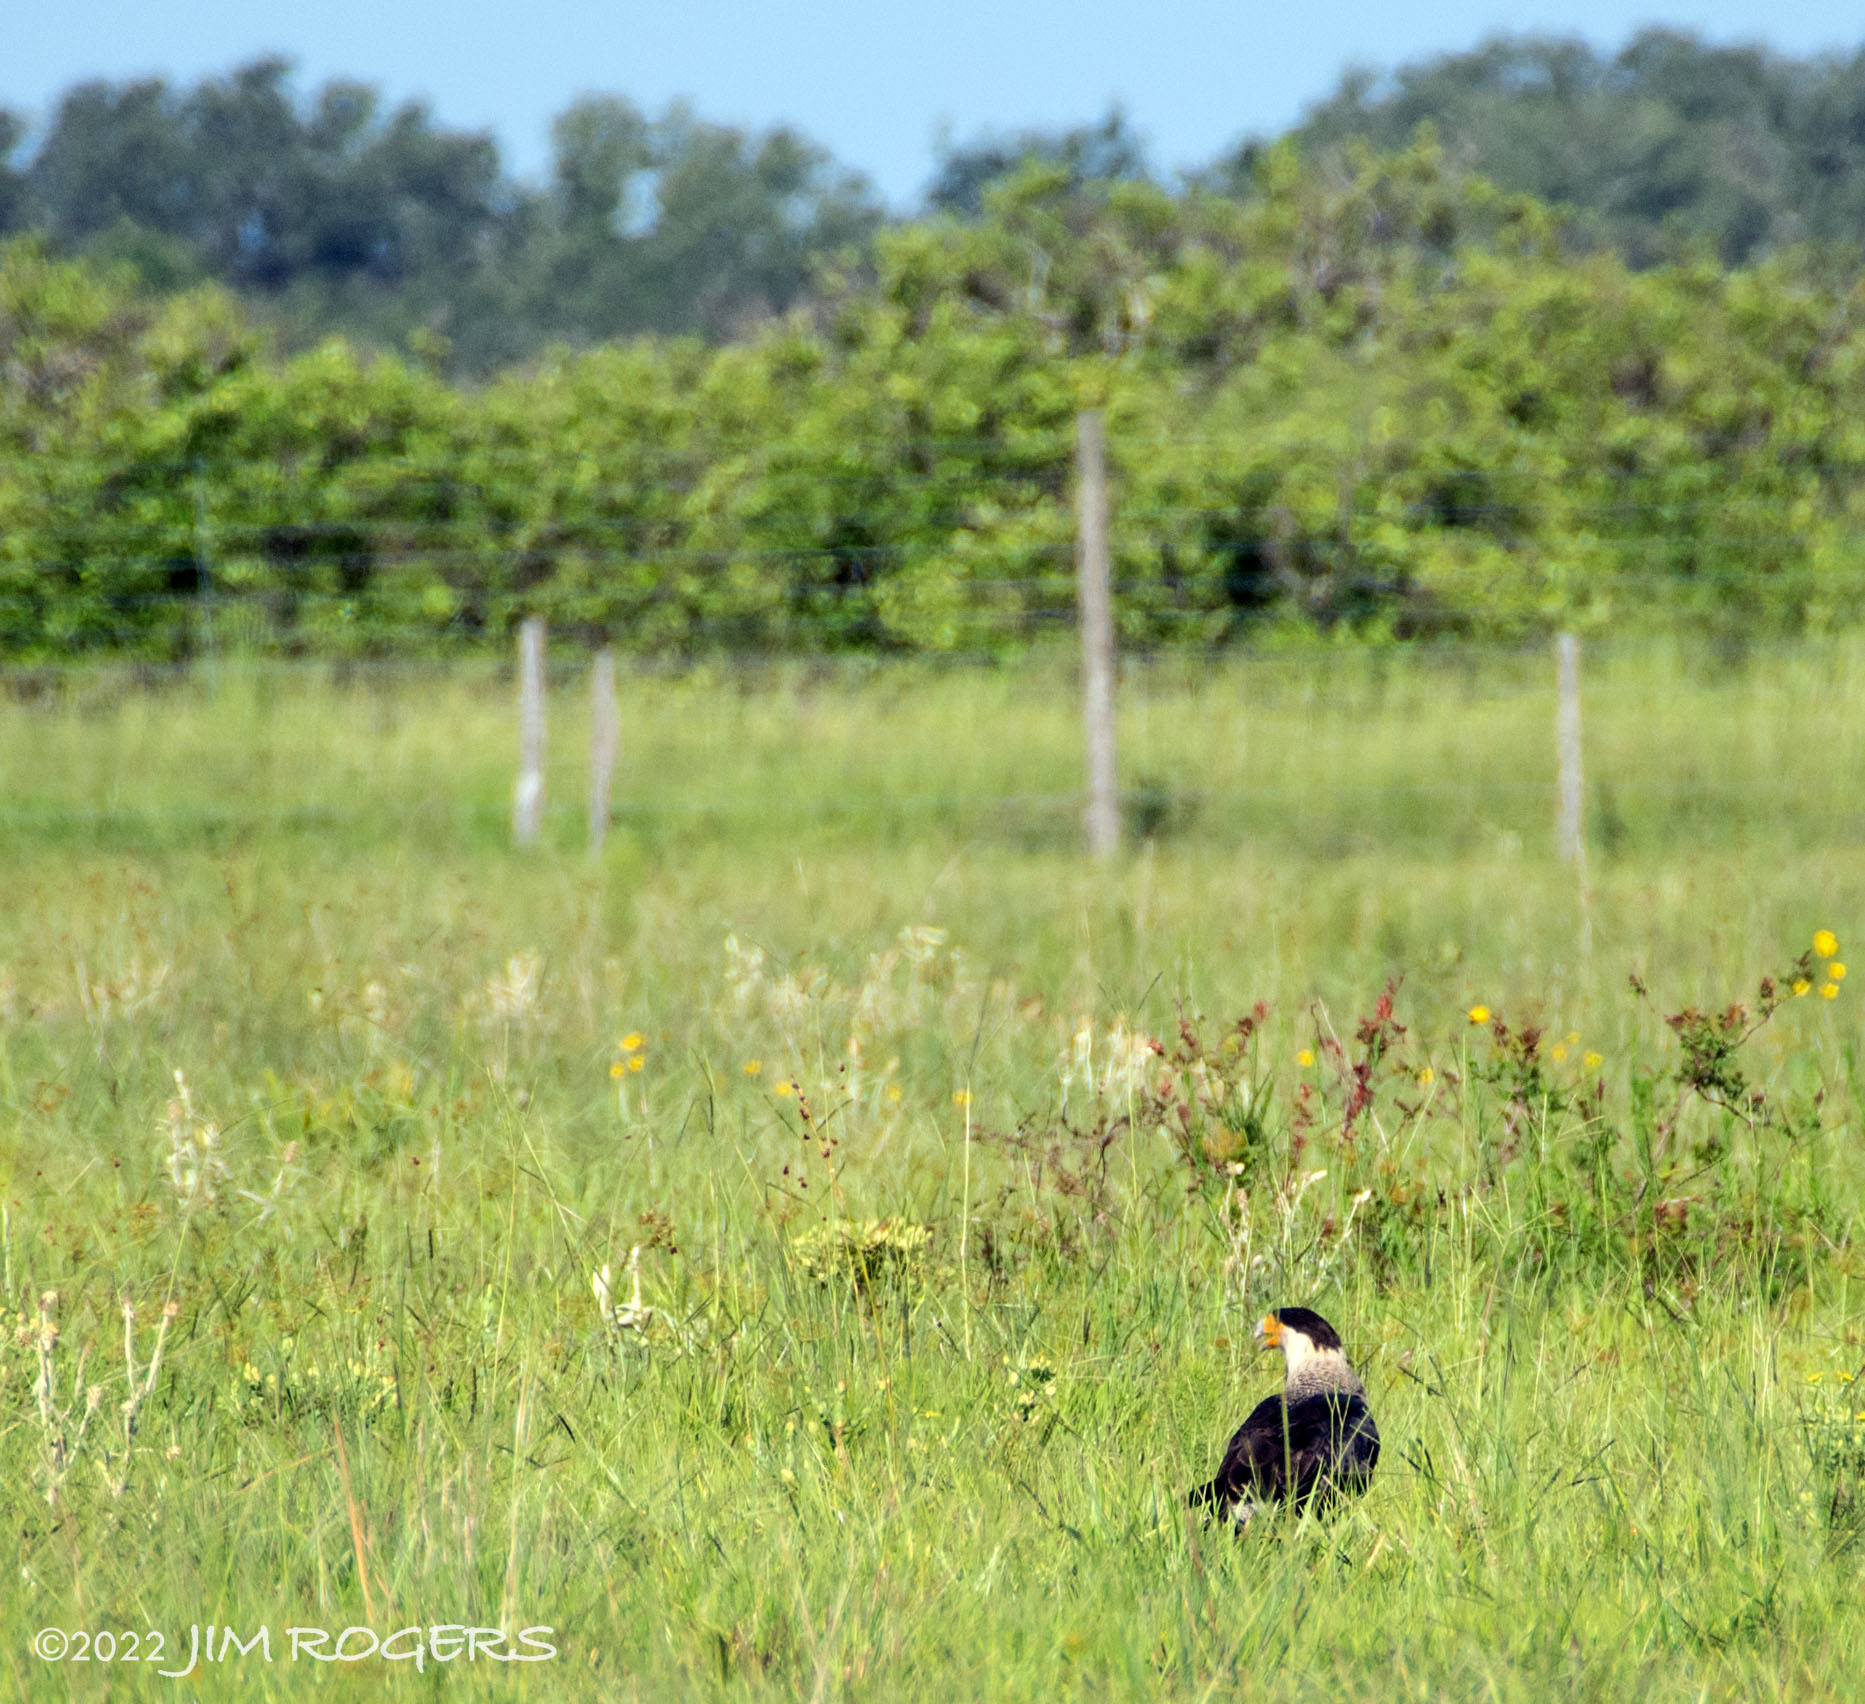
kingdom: Animalia
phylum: Chordata
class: Aves
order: Falconiformes
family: Falconidae
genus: Caracara
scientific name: Caracara plancus
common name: Southern caracara
